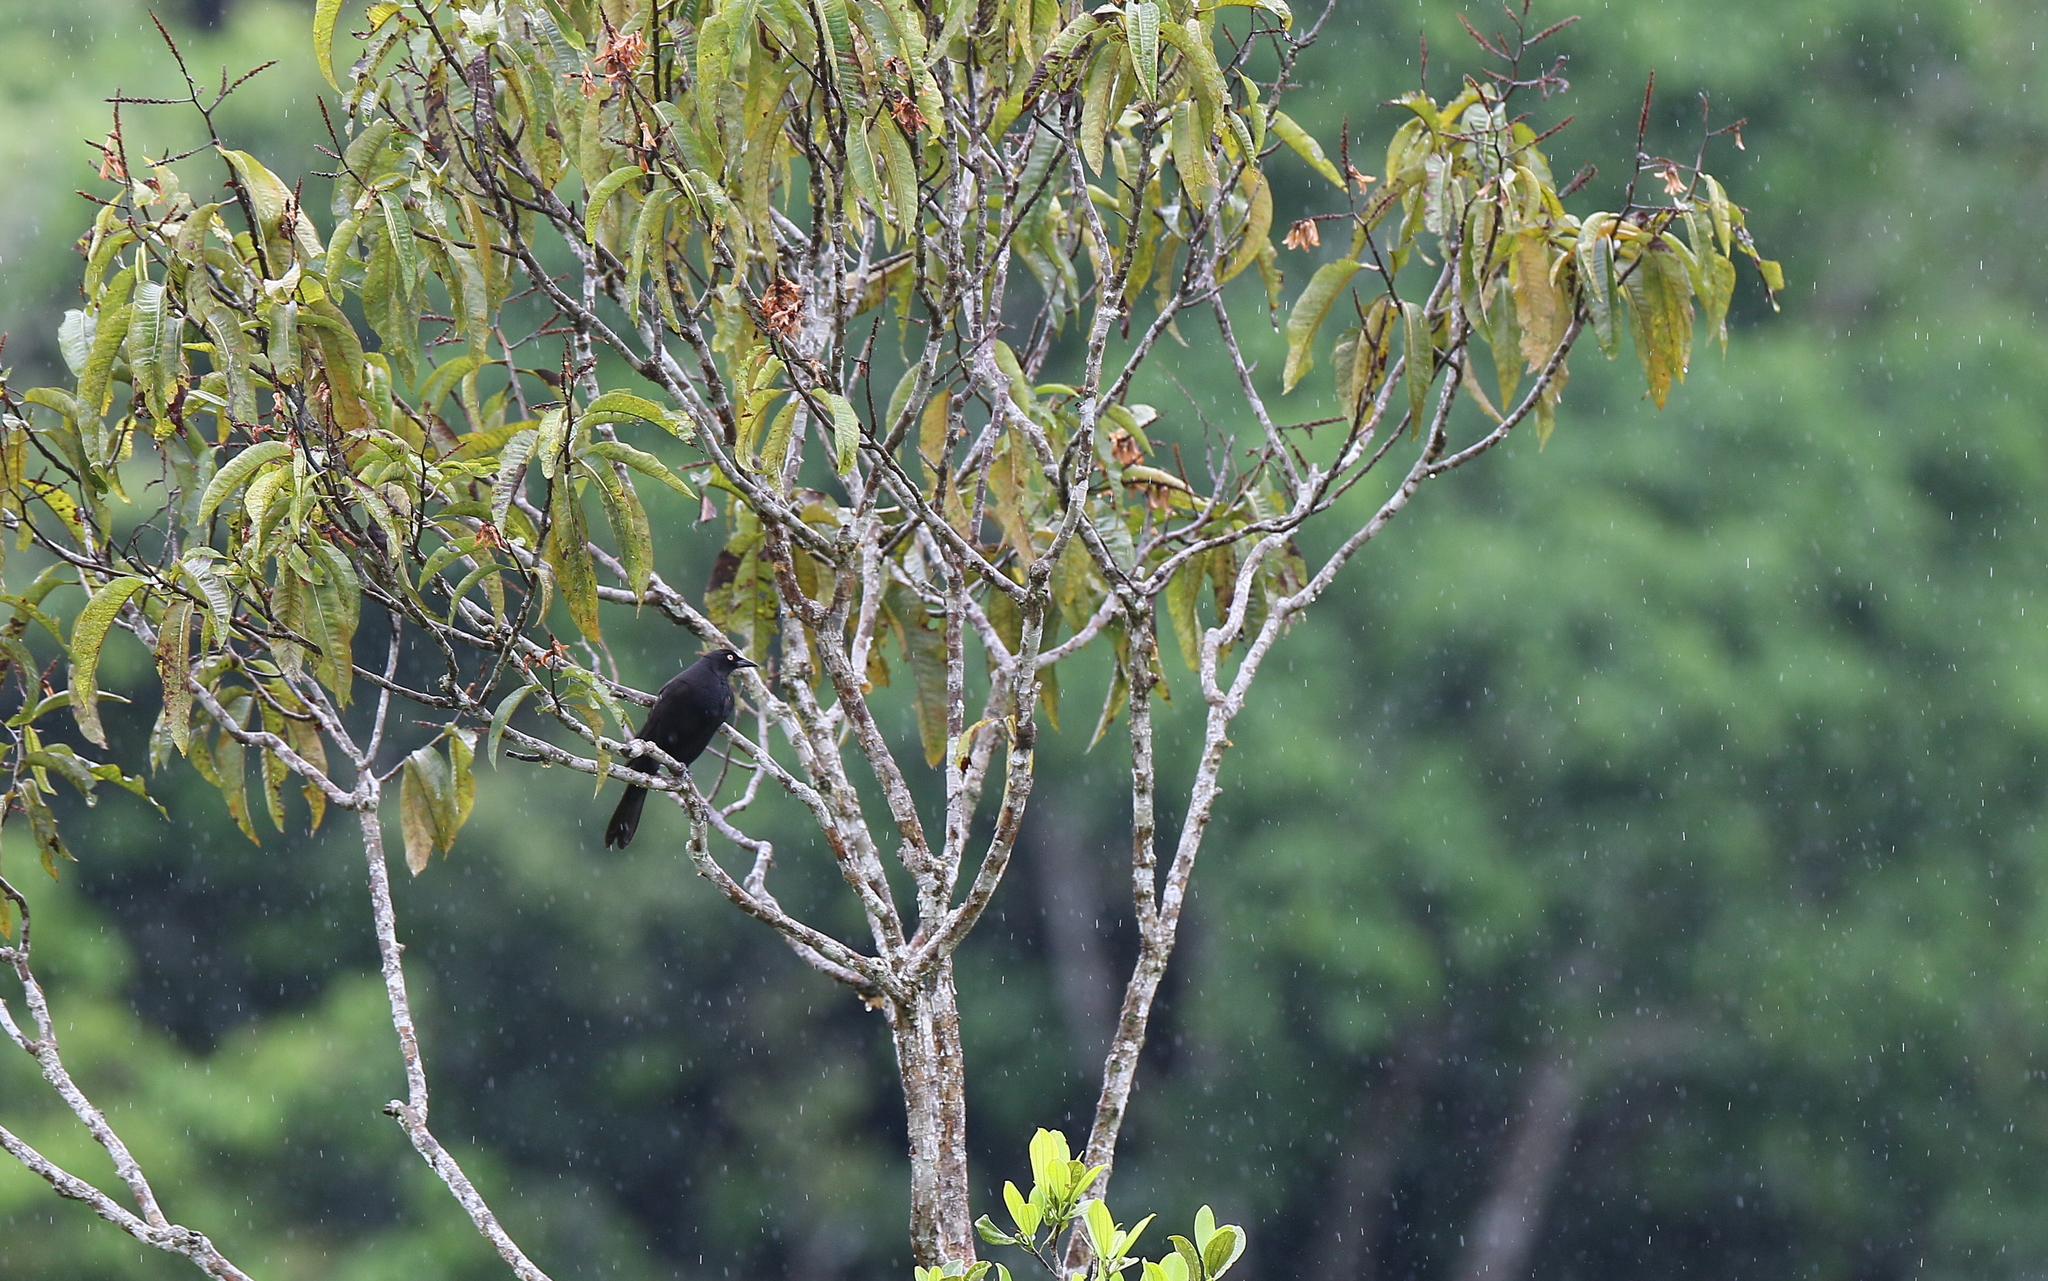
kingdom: Animalia
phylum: Chordata
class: Aves
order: Passeriformes
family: Icteridae
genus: Molothrus
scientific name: Molothrus oryzivorus
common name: Giant cowbird
